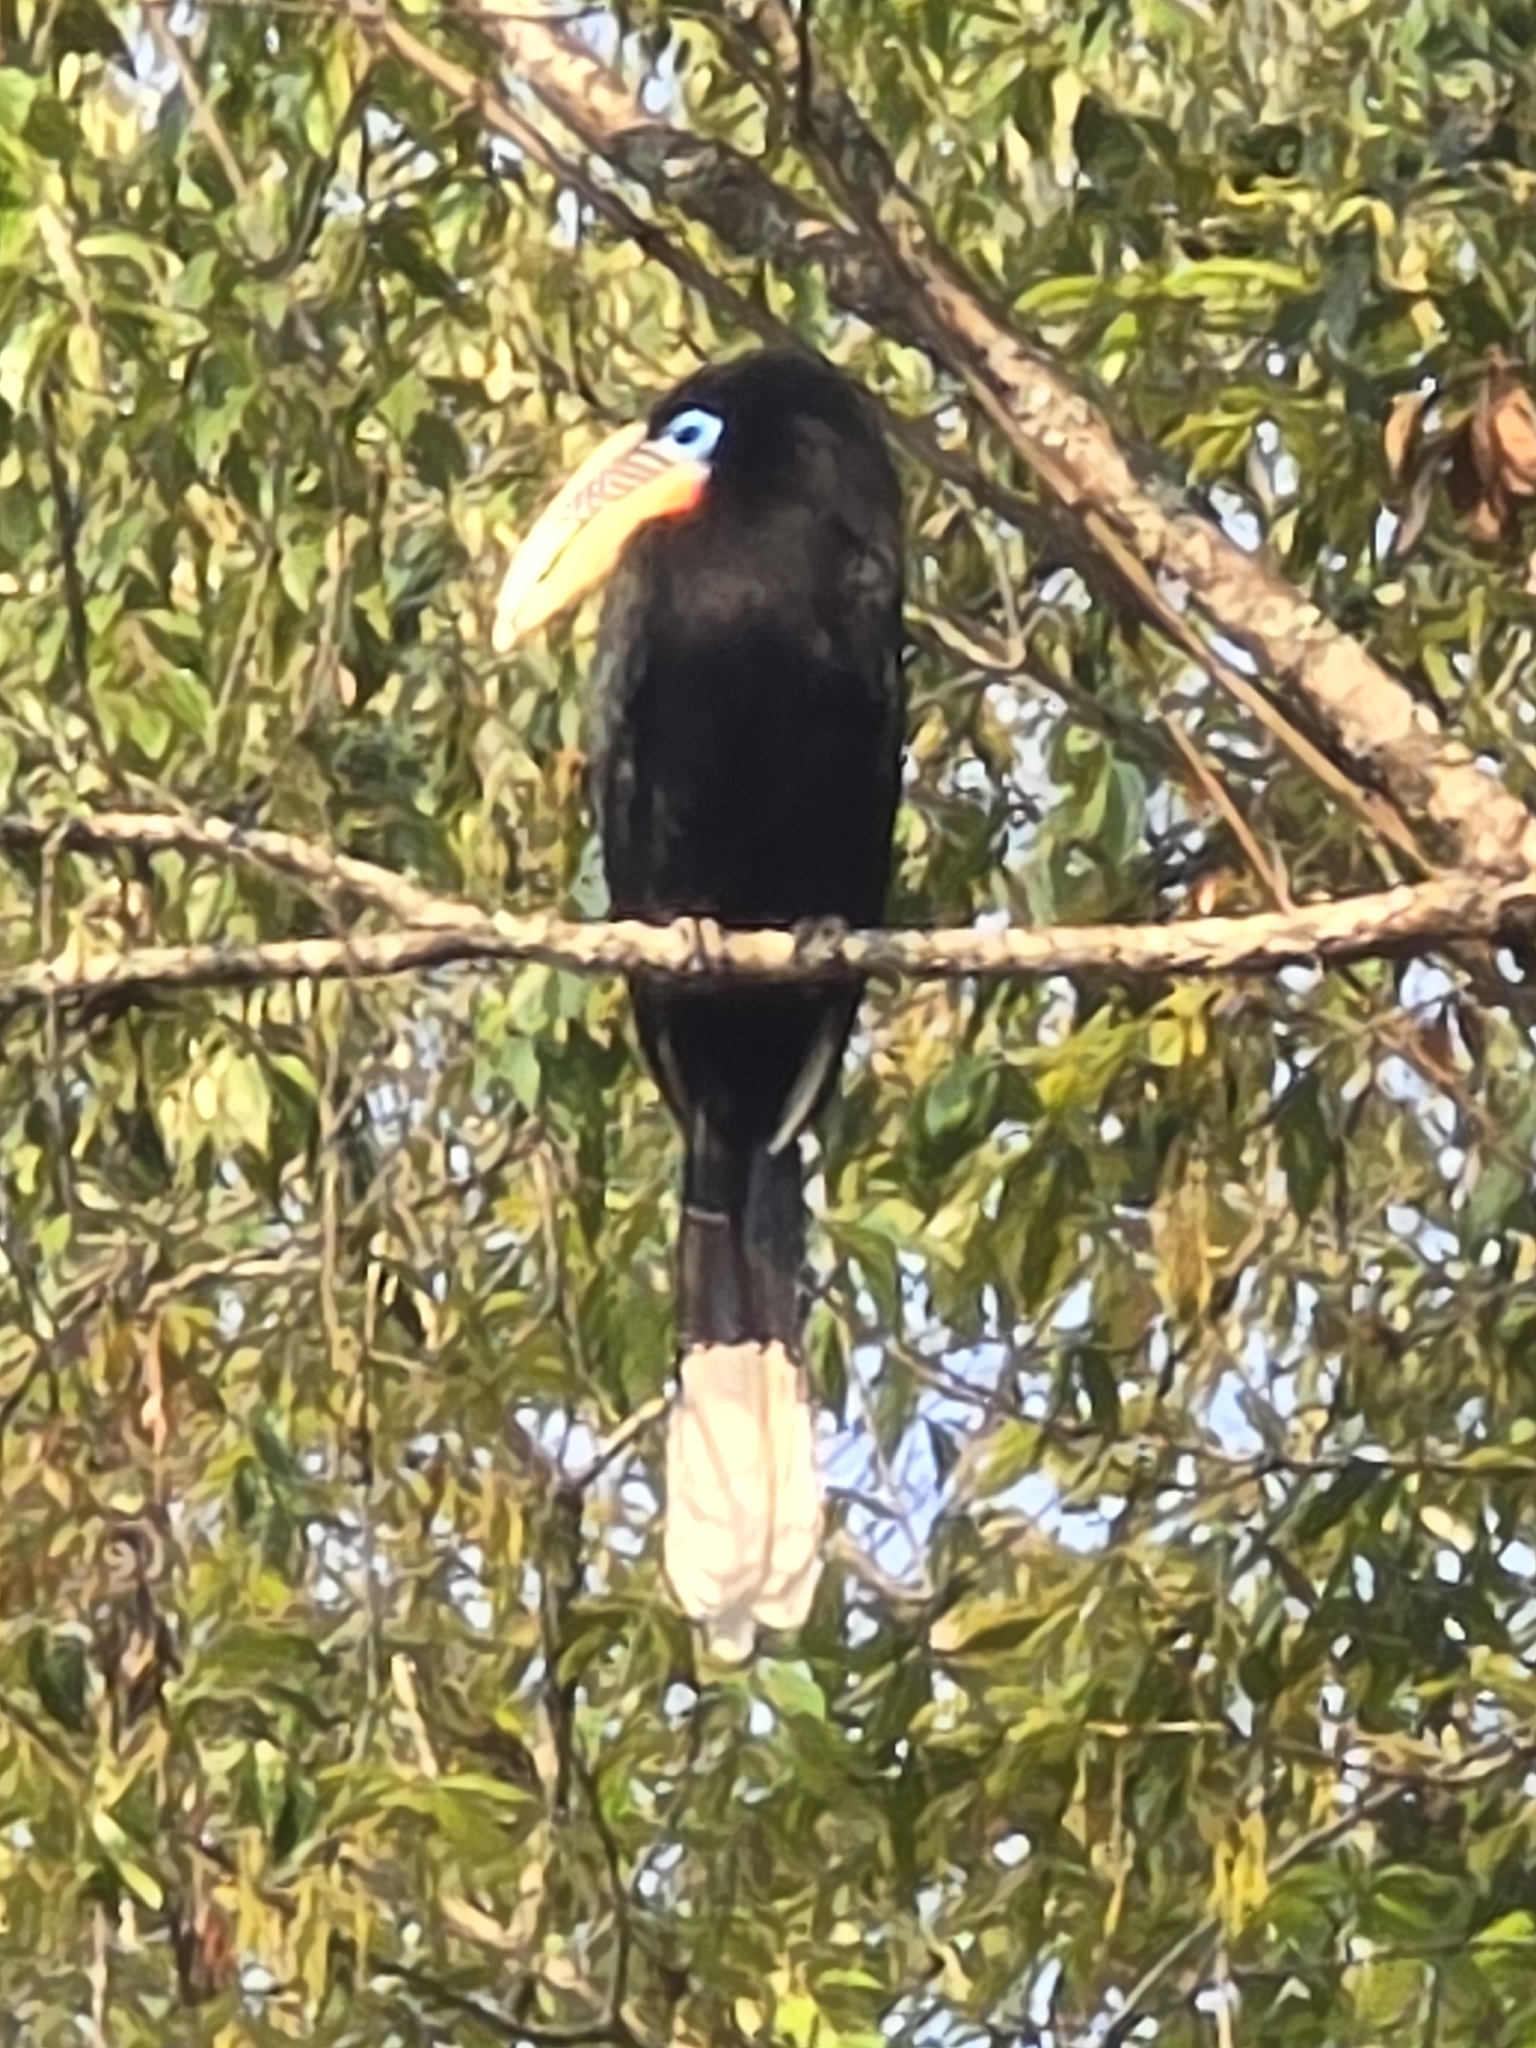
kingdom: Animalia
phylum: Chordata
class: Aves
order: Bucerotiformes
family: Bucerotidae
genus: Aceros
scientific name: Aceros nipalensis
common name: Rufous-necked hornbill
